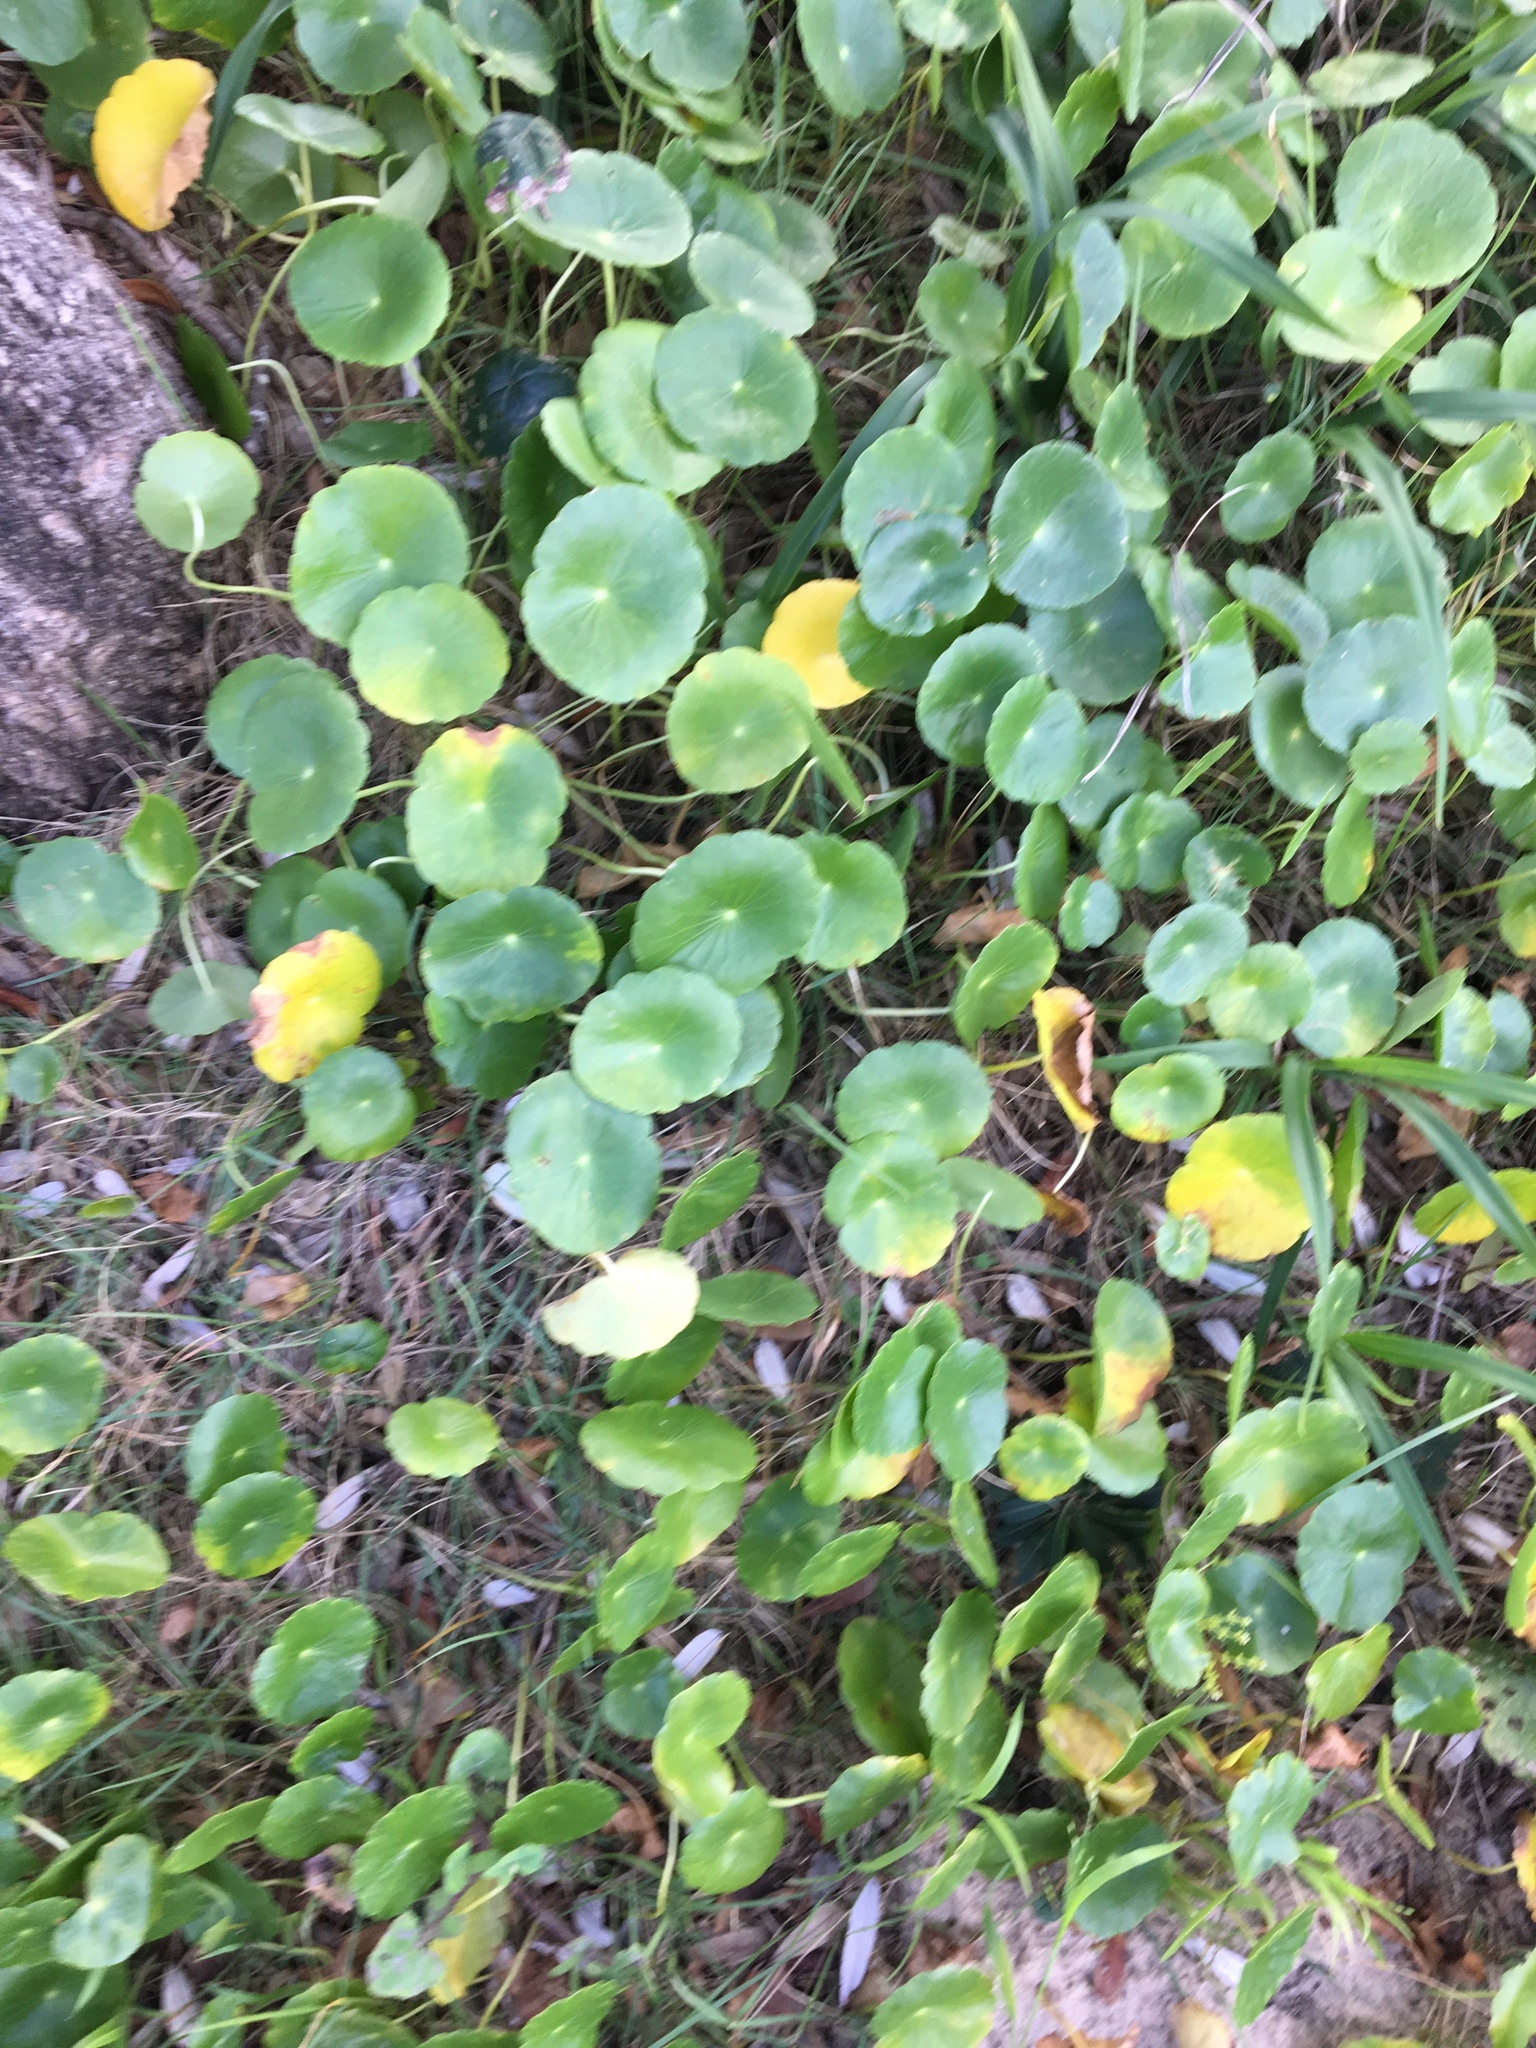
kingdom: Plantae
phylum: Tracheophyta
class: Magnoliopsida
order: Apiales
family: Araliaceae
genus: Hydrocotyle
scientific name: Hydrocotyle bonariensis
